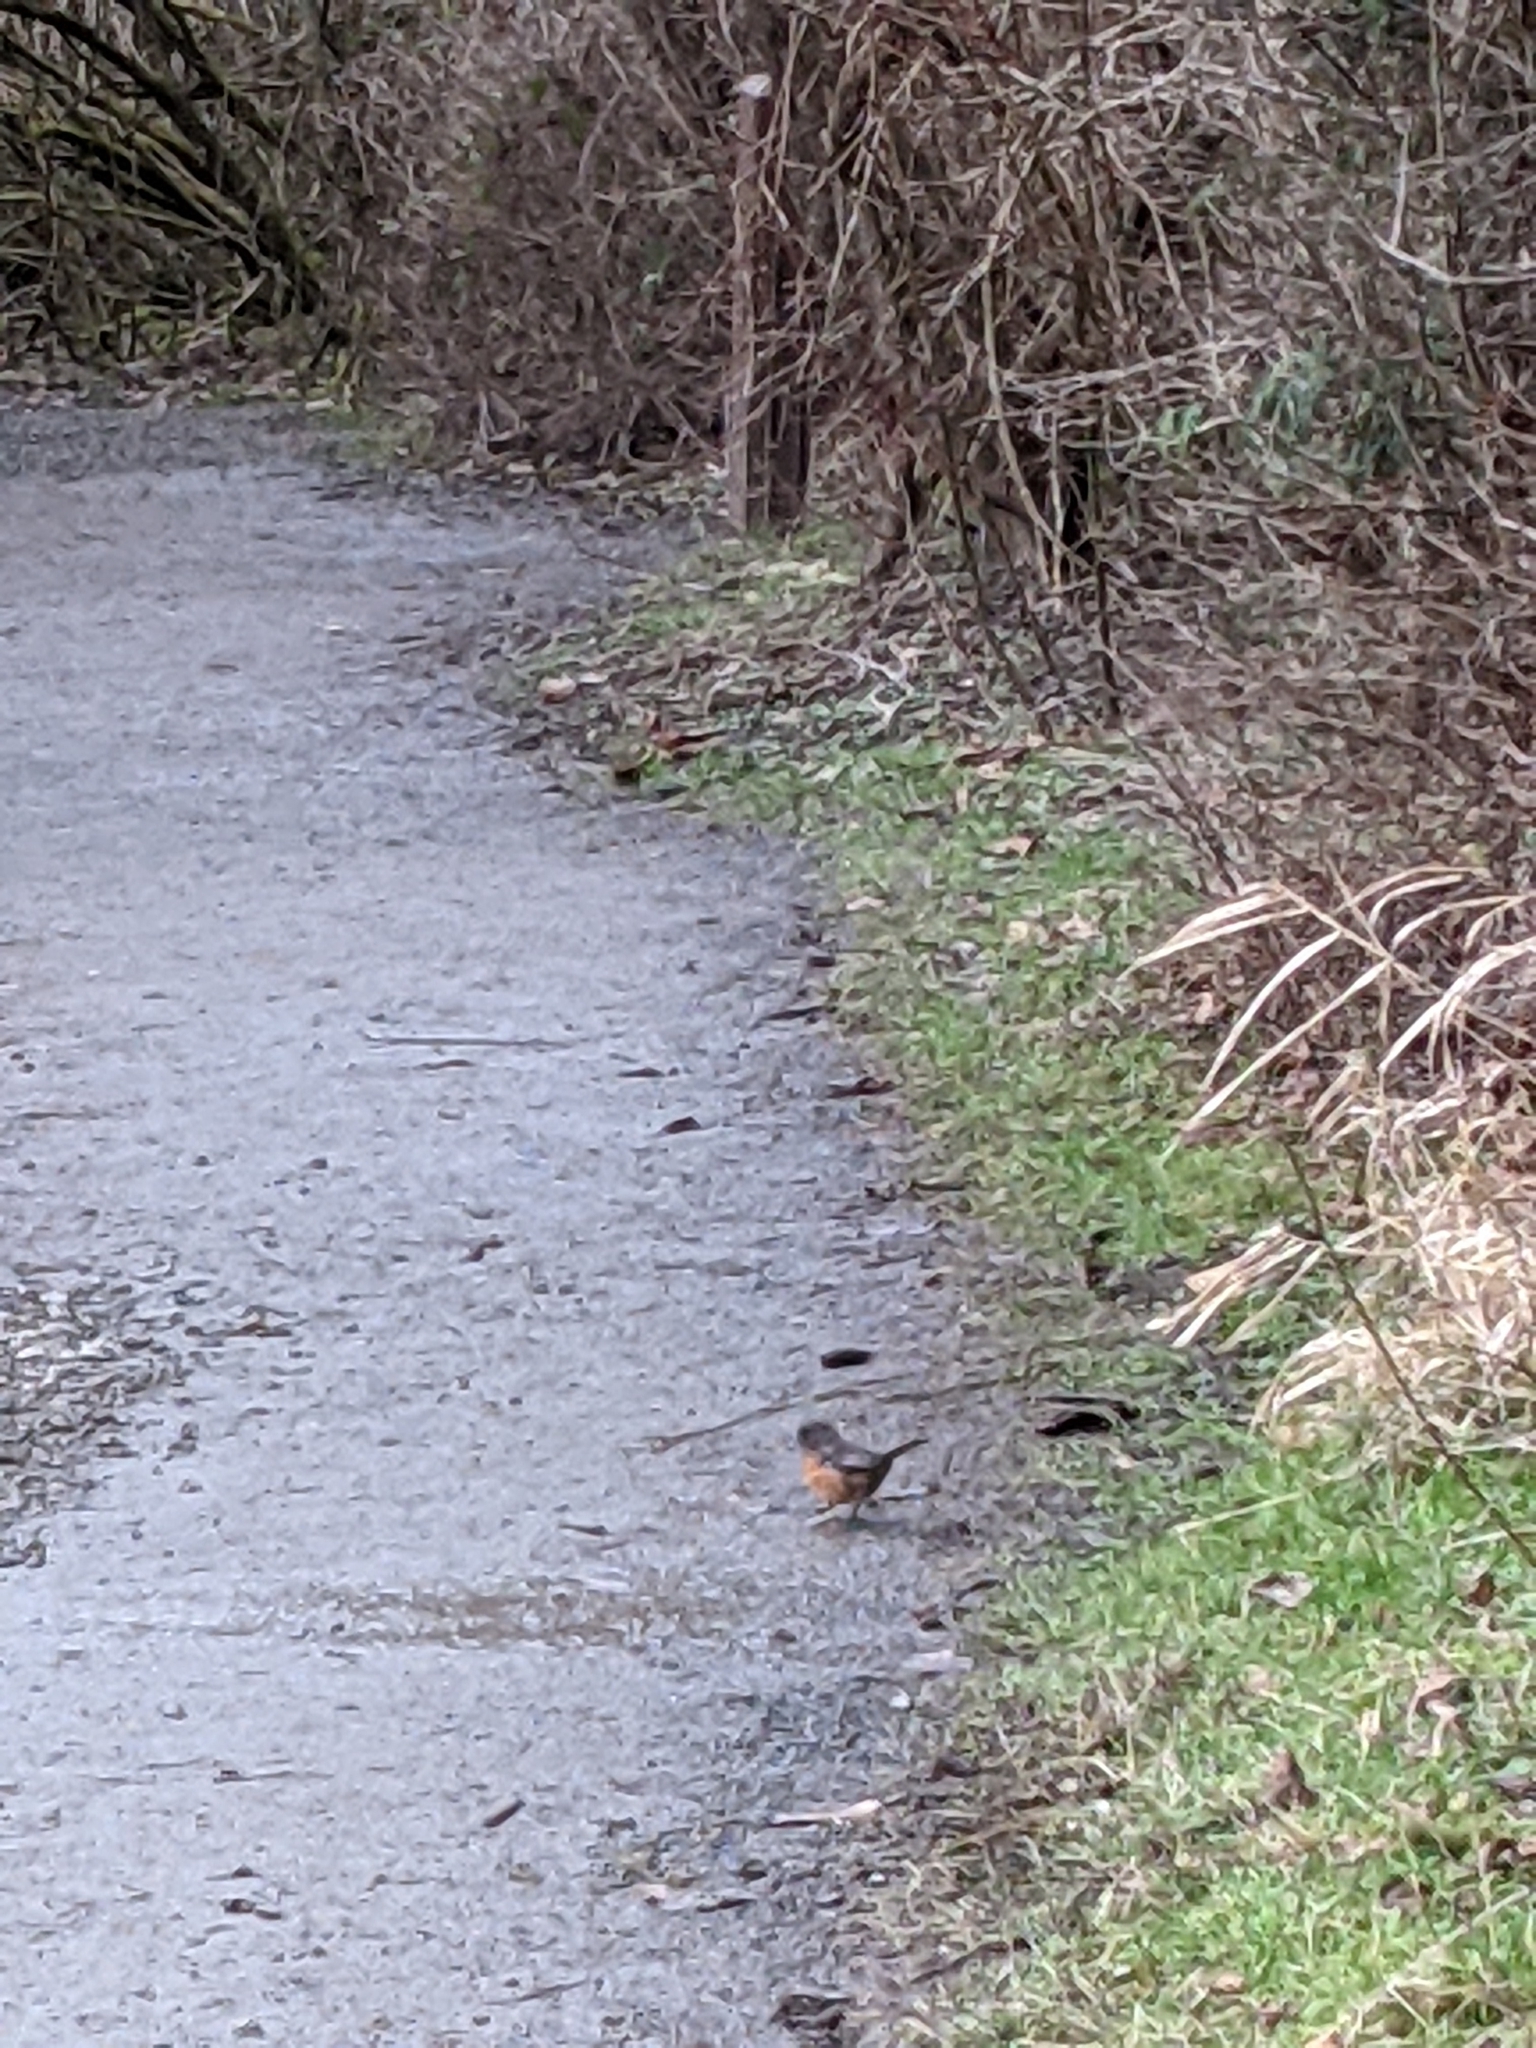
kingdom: Animalia
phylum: Chordata
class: Aves
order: Passeriformes
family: Passerellidae
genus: Pipilo
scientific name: Pipilo maculatus
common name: Spotted towhee
